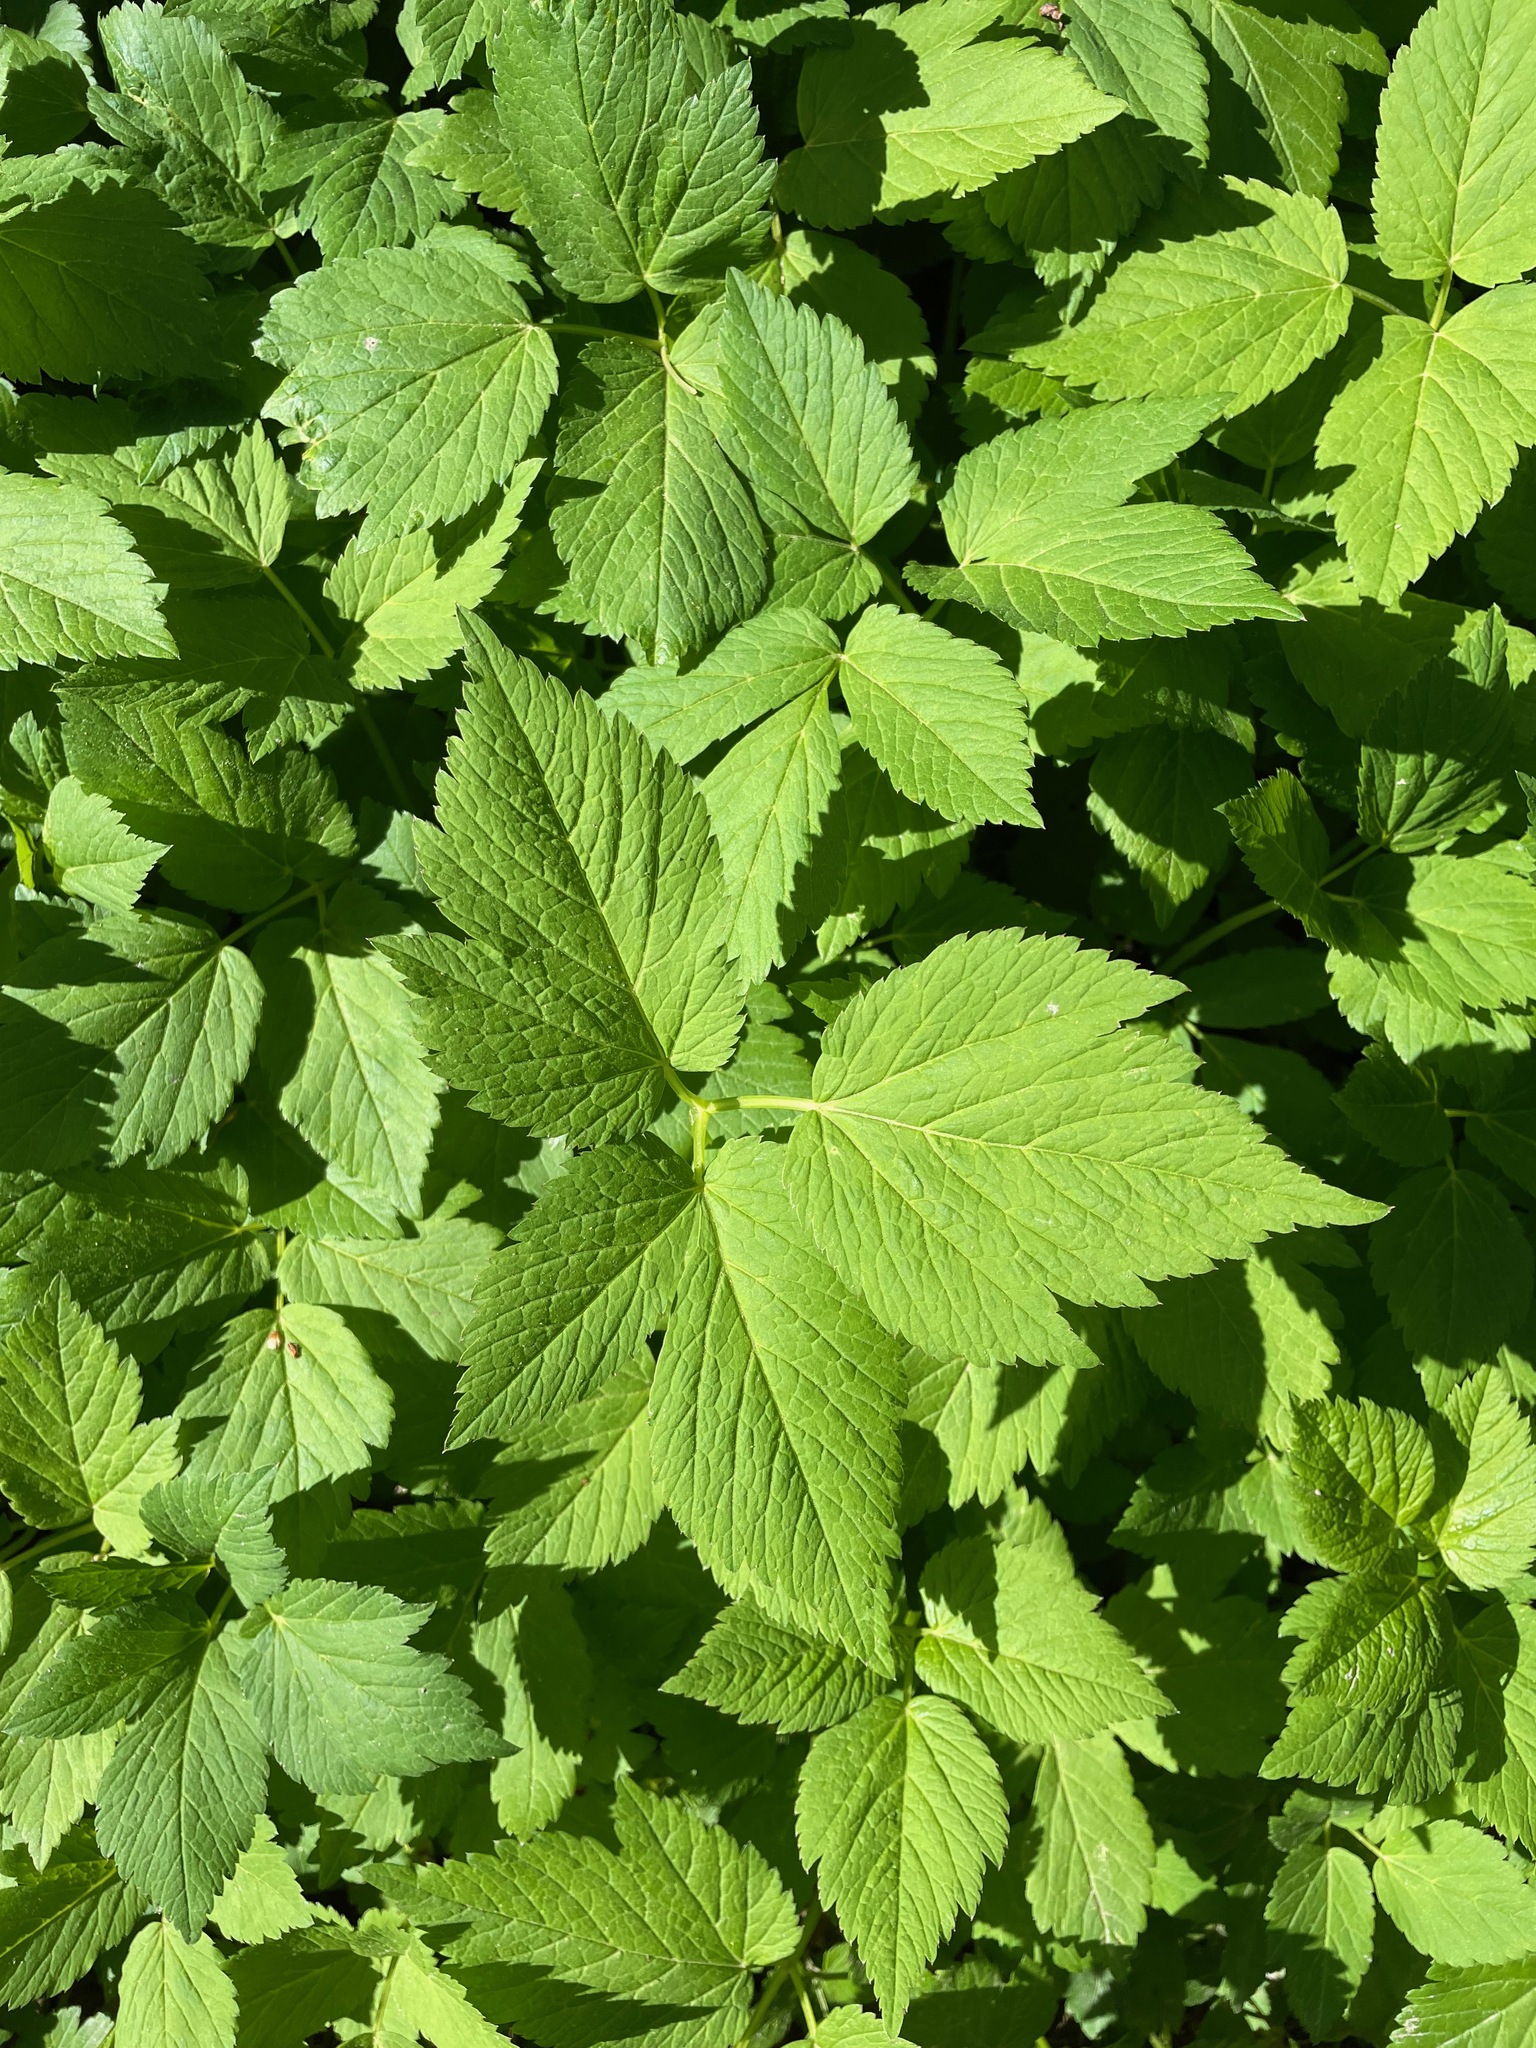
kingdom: Plantae
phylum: Tracheophyta
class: Magnoliopsida
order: Apiales
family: Apiaceae
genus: Aegopodium
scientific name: Aegopodium podagraria
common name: Ground-elder
